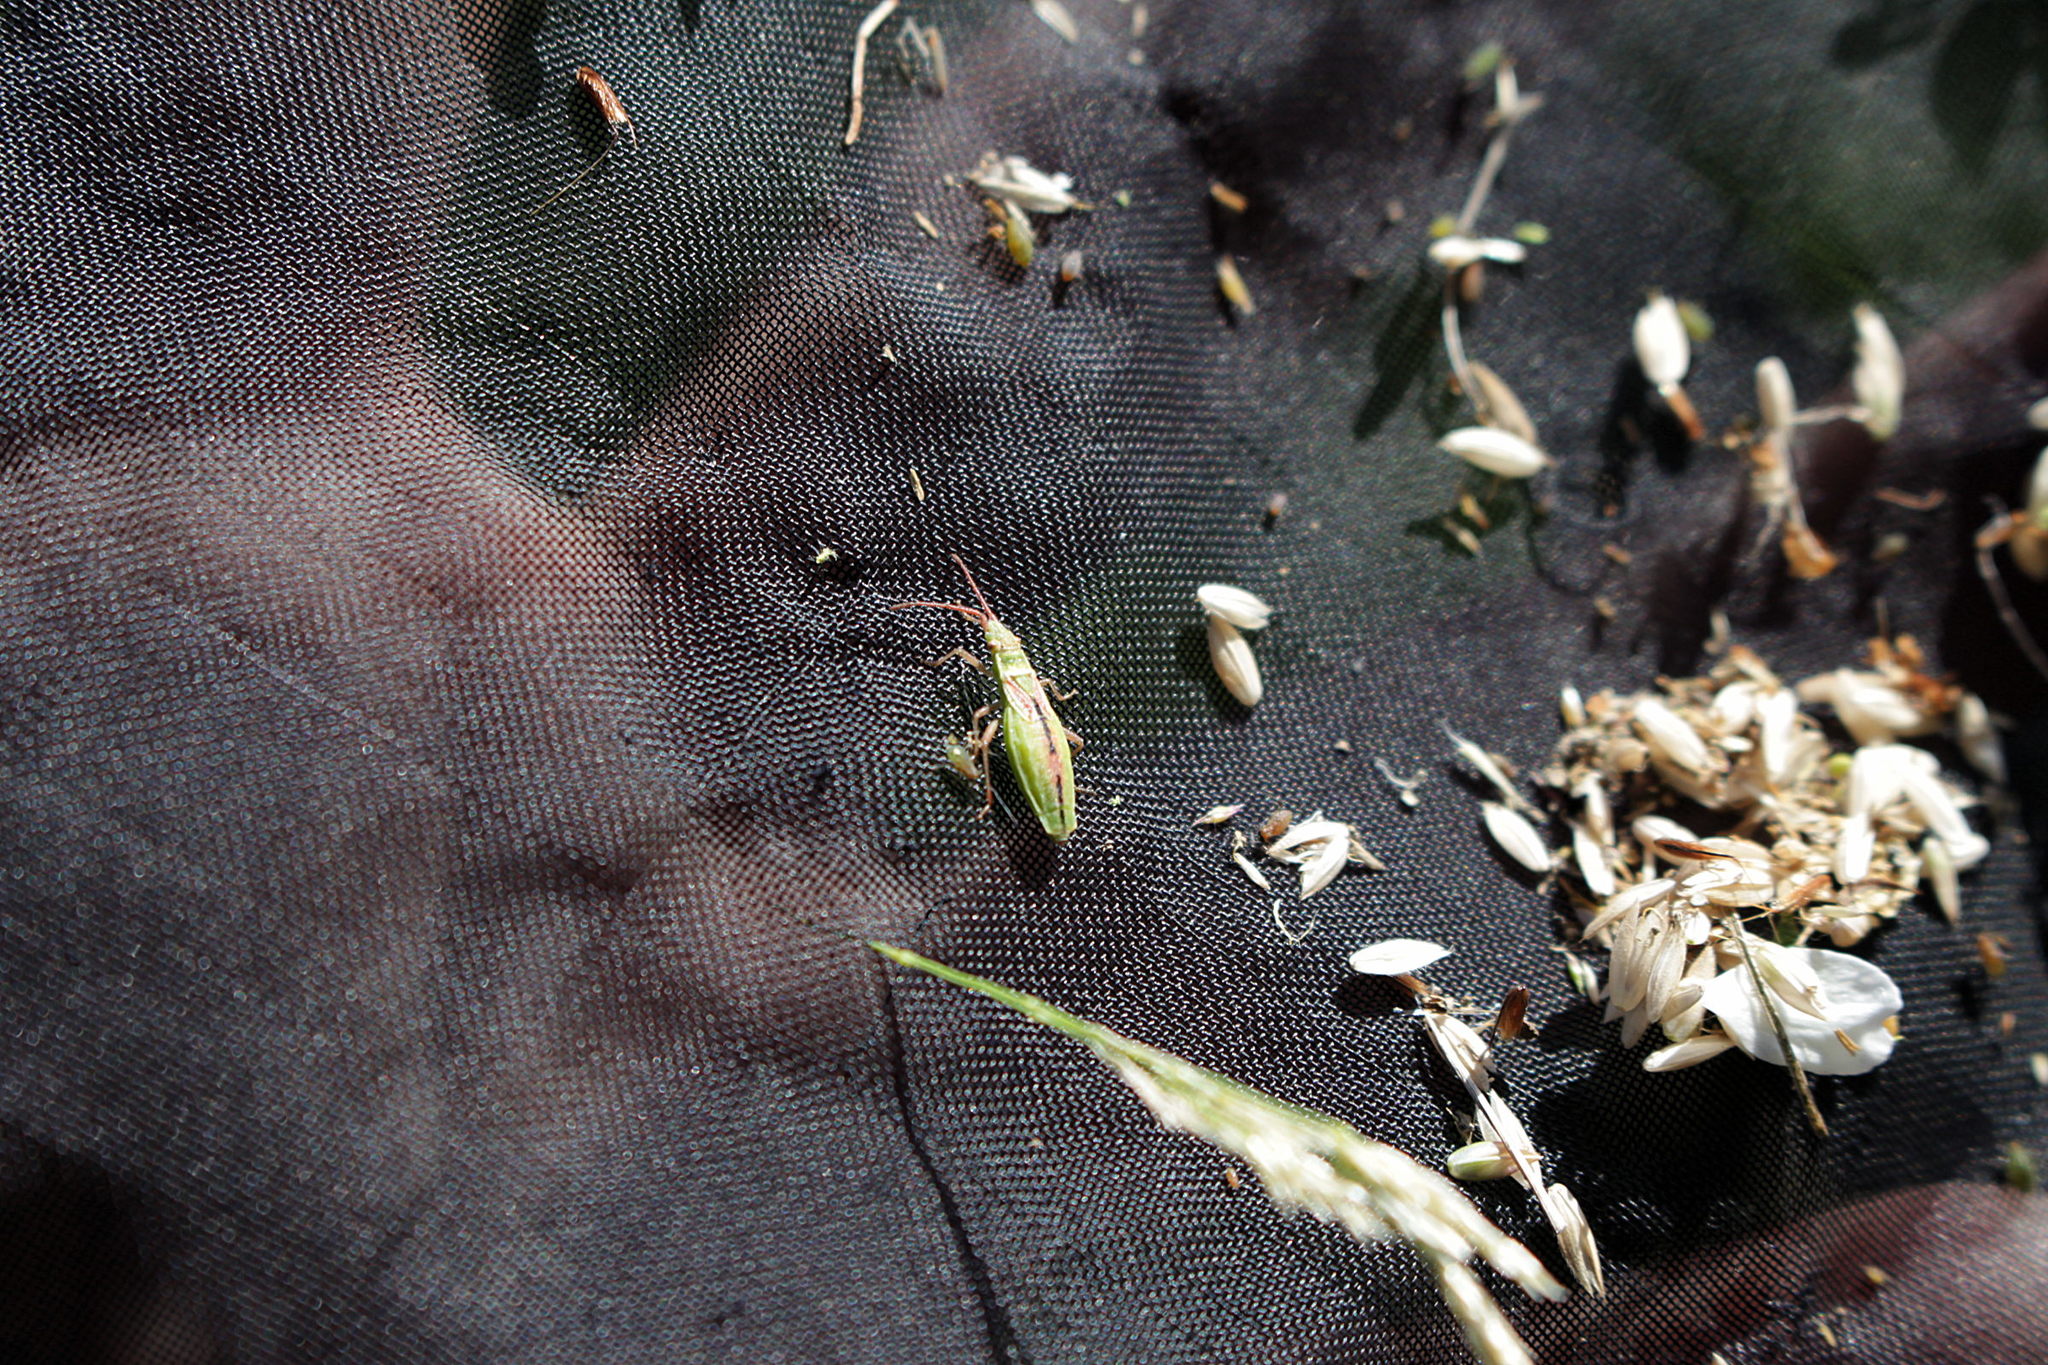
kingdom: Animalia
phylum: Arthropoda
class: Insecta
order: Hemiptera
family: Rhopalidae
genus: Myrmus
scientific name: Myrmus miriformis
